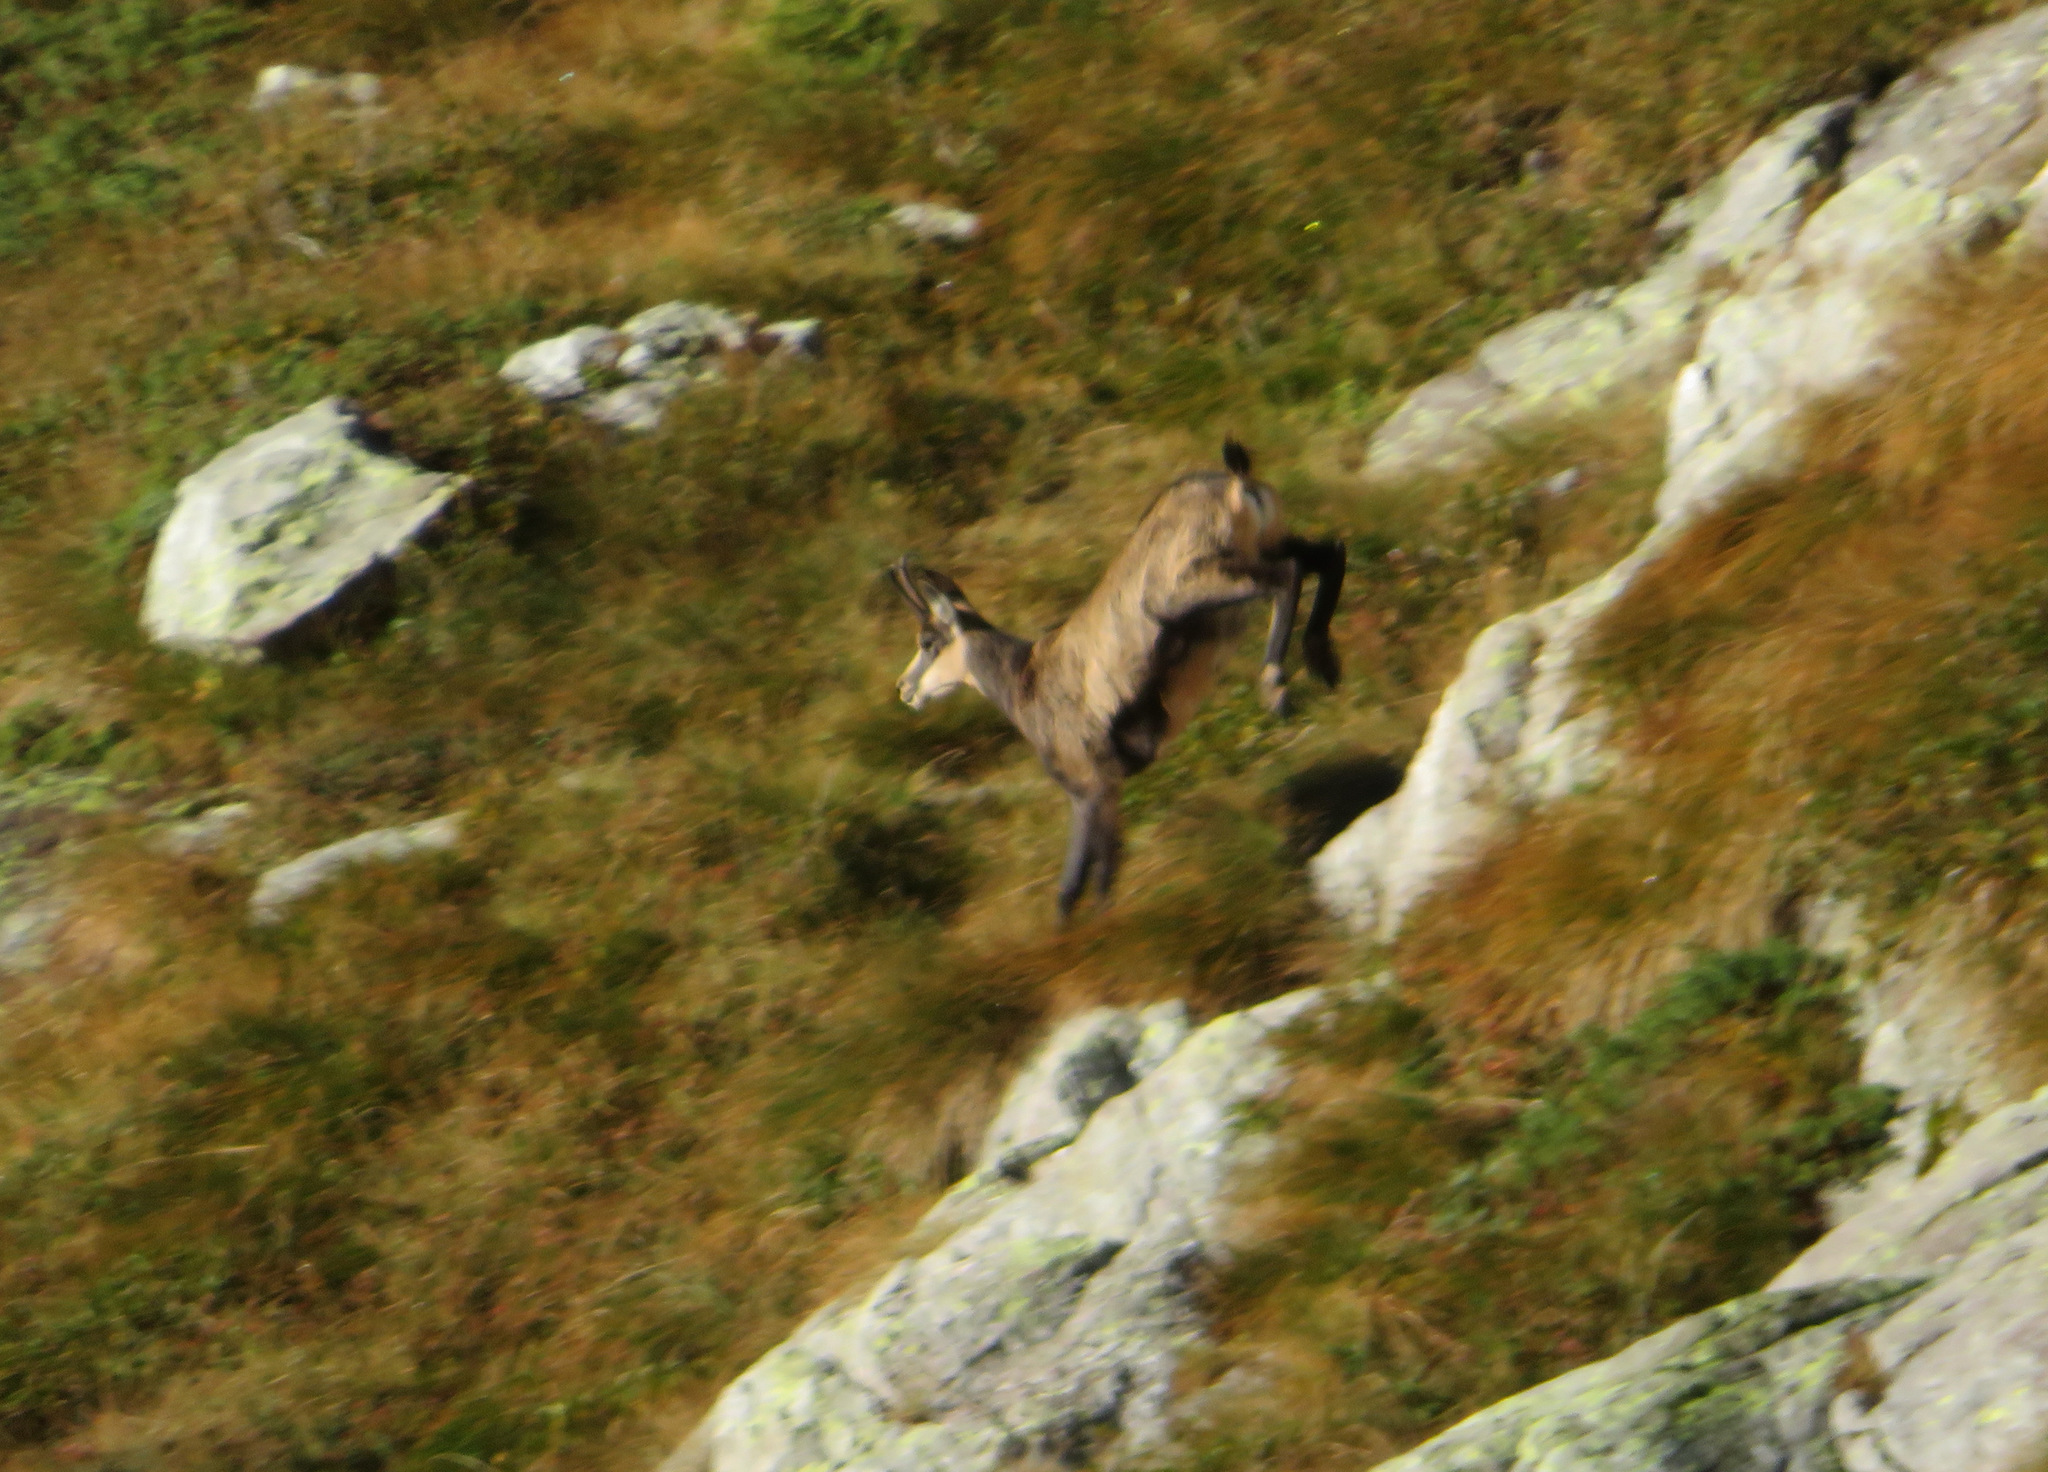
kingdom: Animalia
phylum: Chordata
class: Mammalia
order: Artiodactyla
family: Bovidae
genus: Rupicapra
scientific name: Rupicapra rupicapra
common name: Chamois
